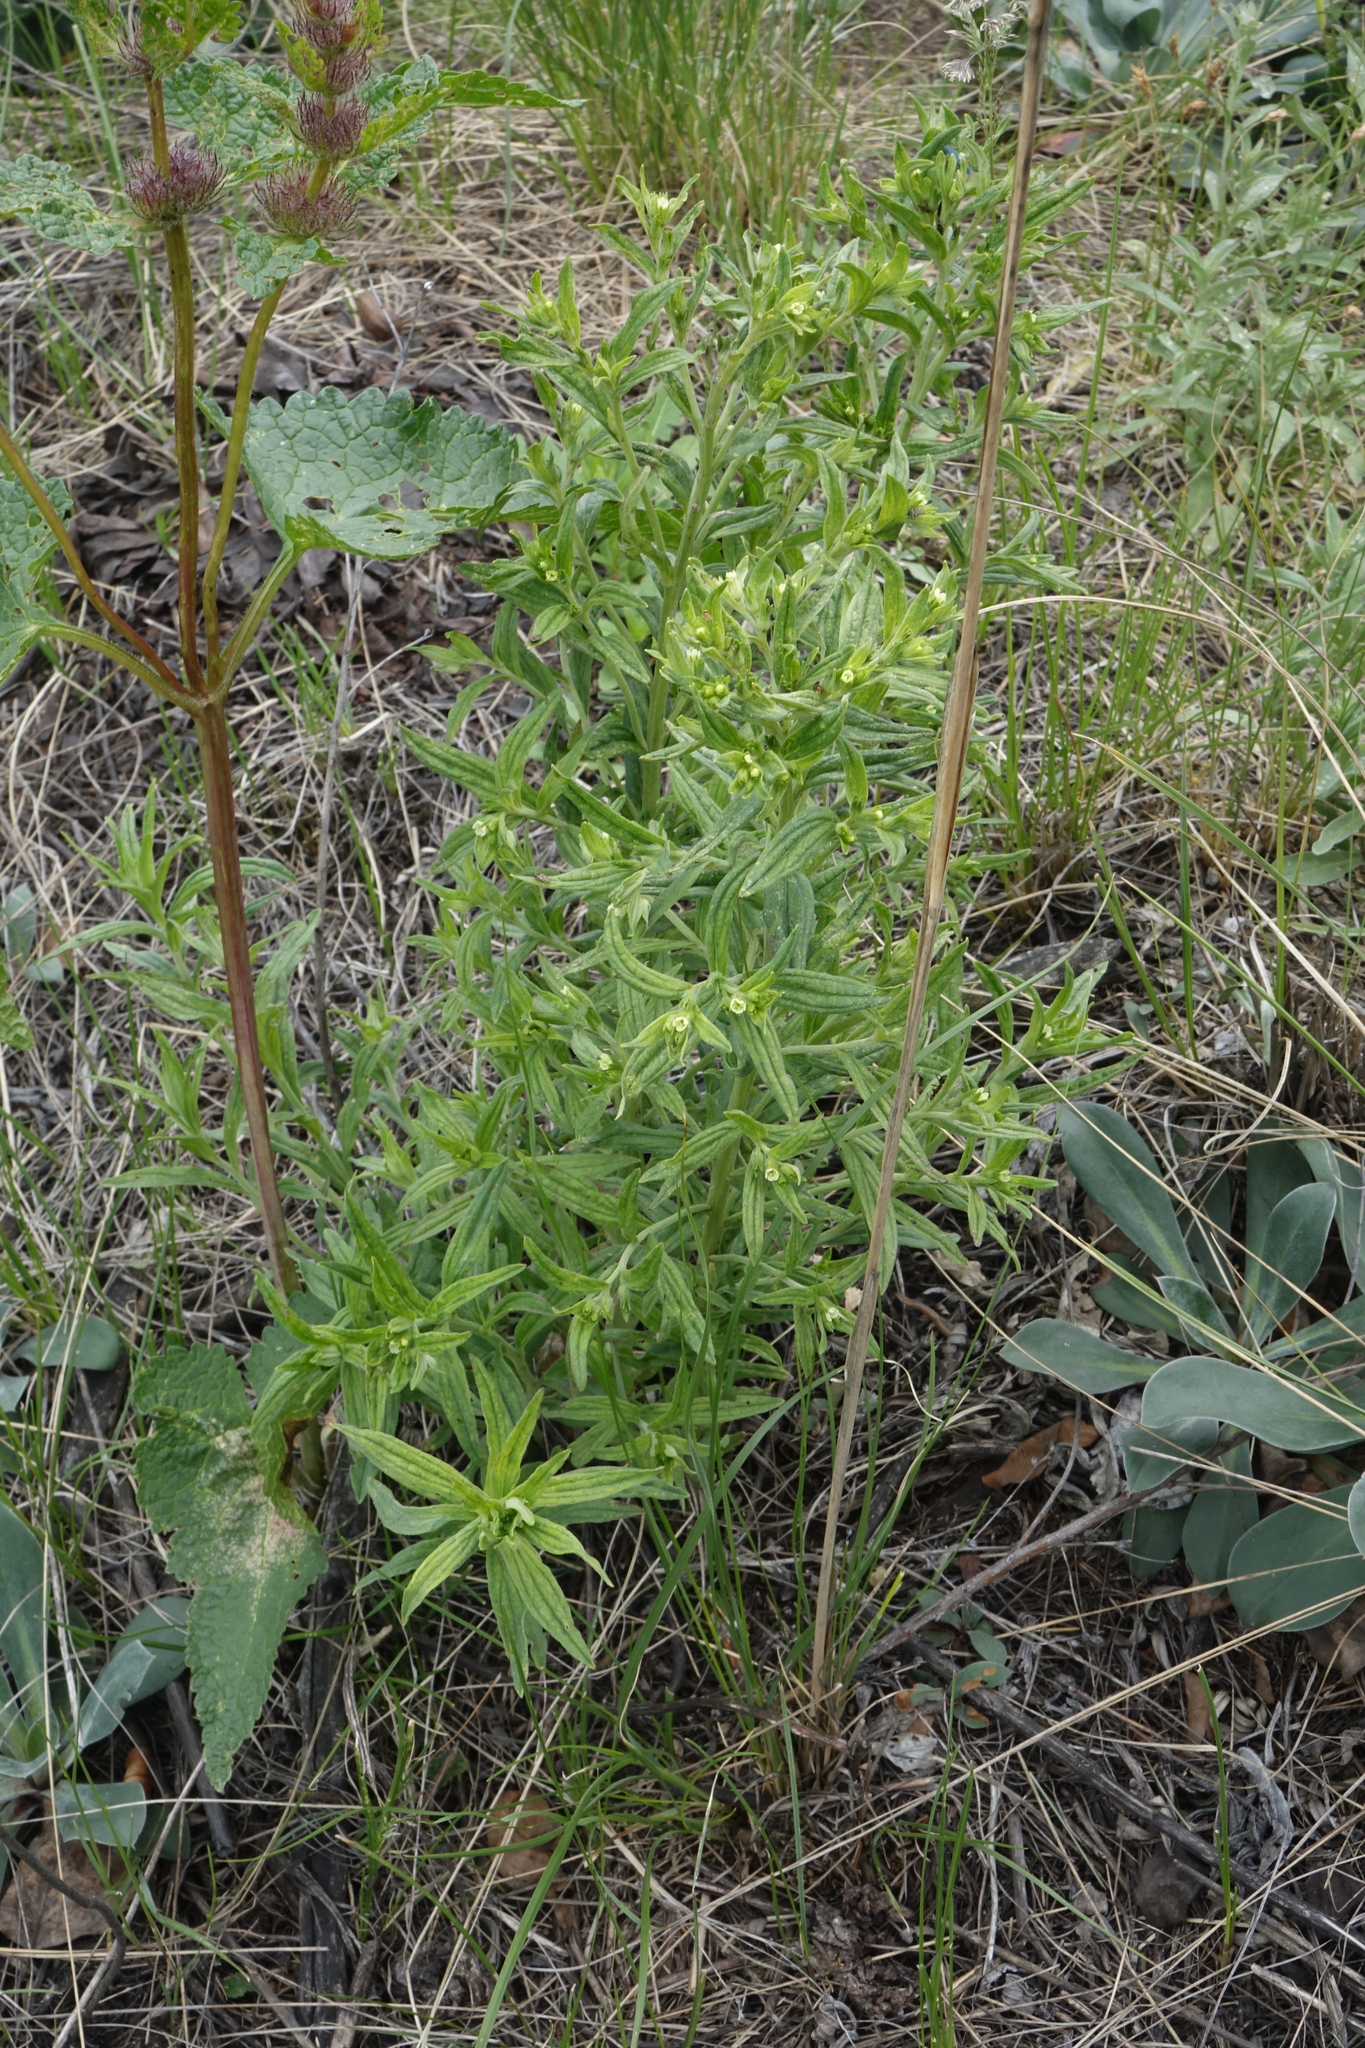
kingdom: Plantae
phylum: Tracheophyta
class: Magnoliopsida
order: Boraginales
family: Boraginaceae
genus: Lithospermum
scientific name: Lithospermum officinale
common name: Common gromwell
